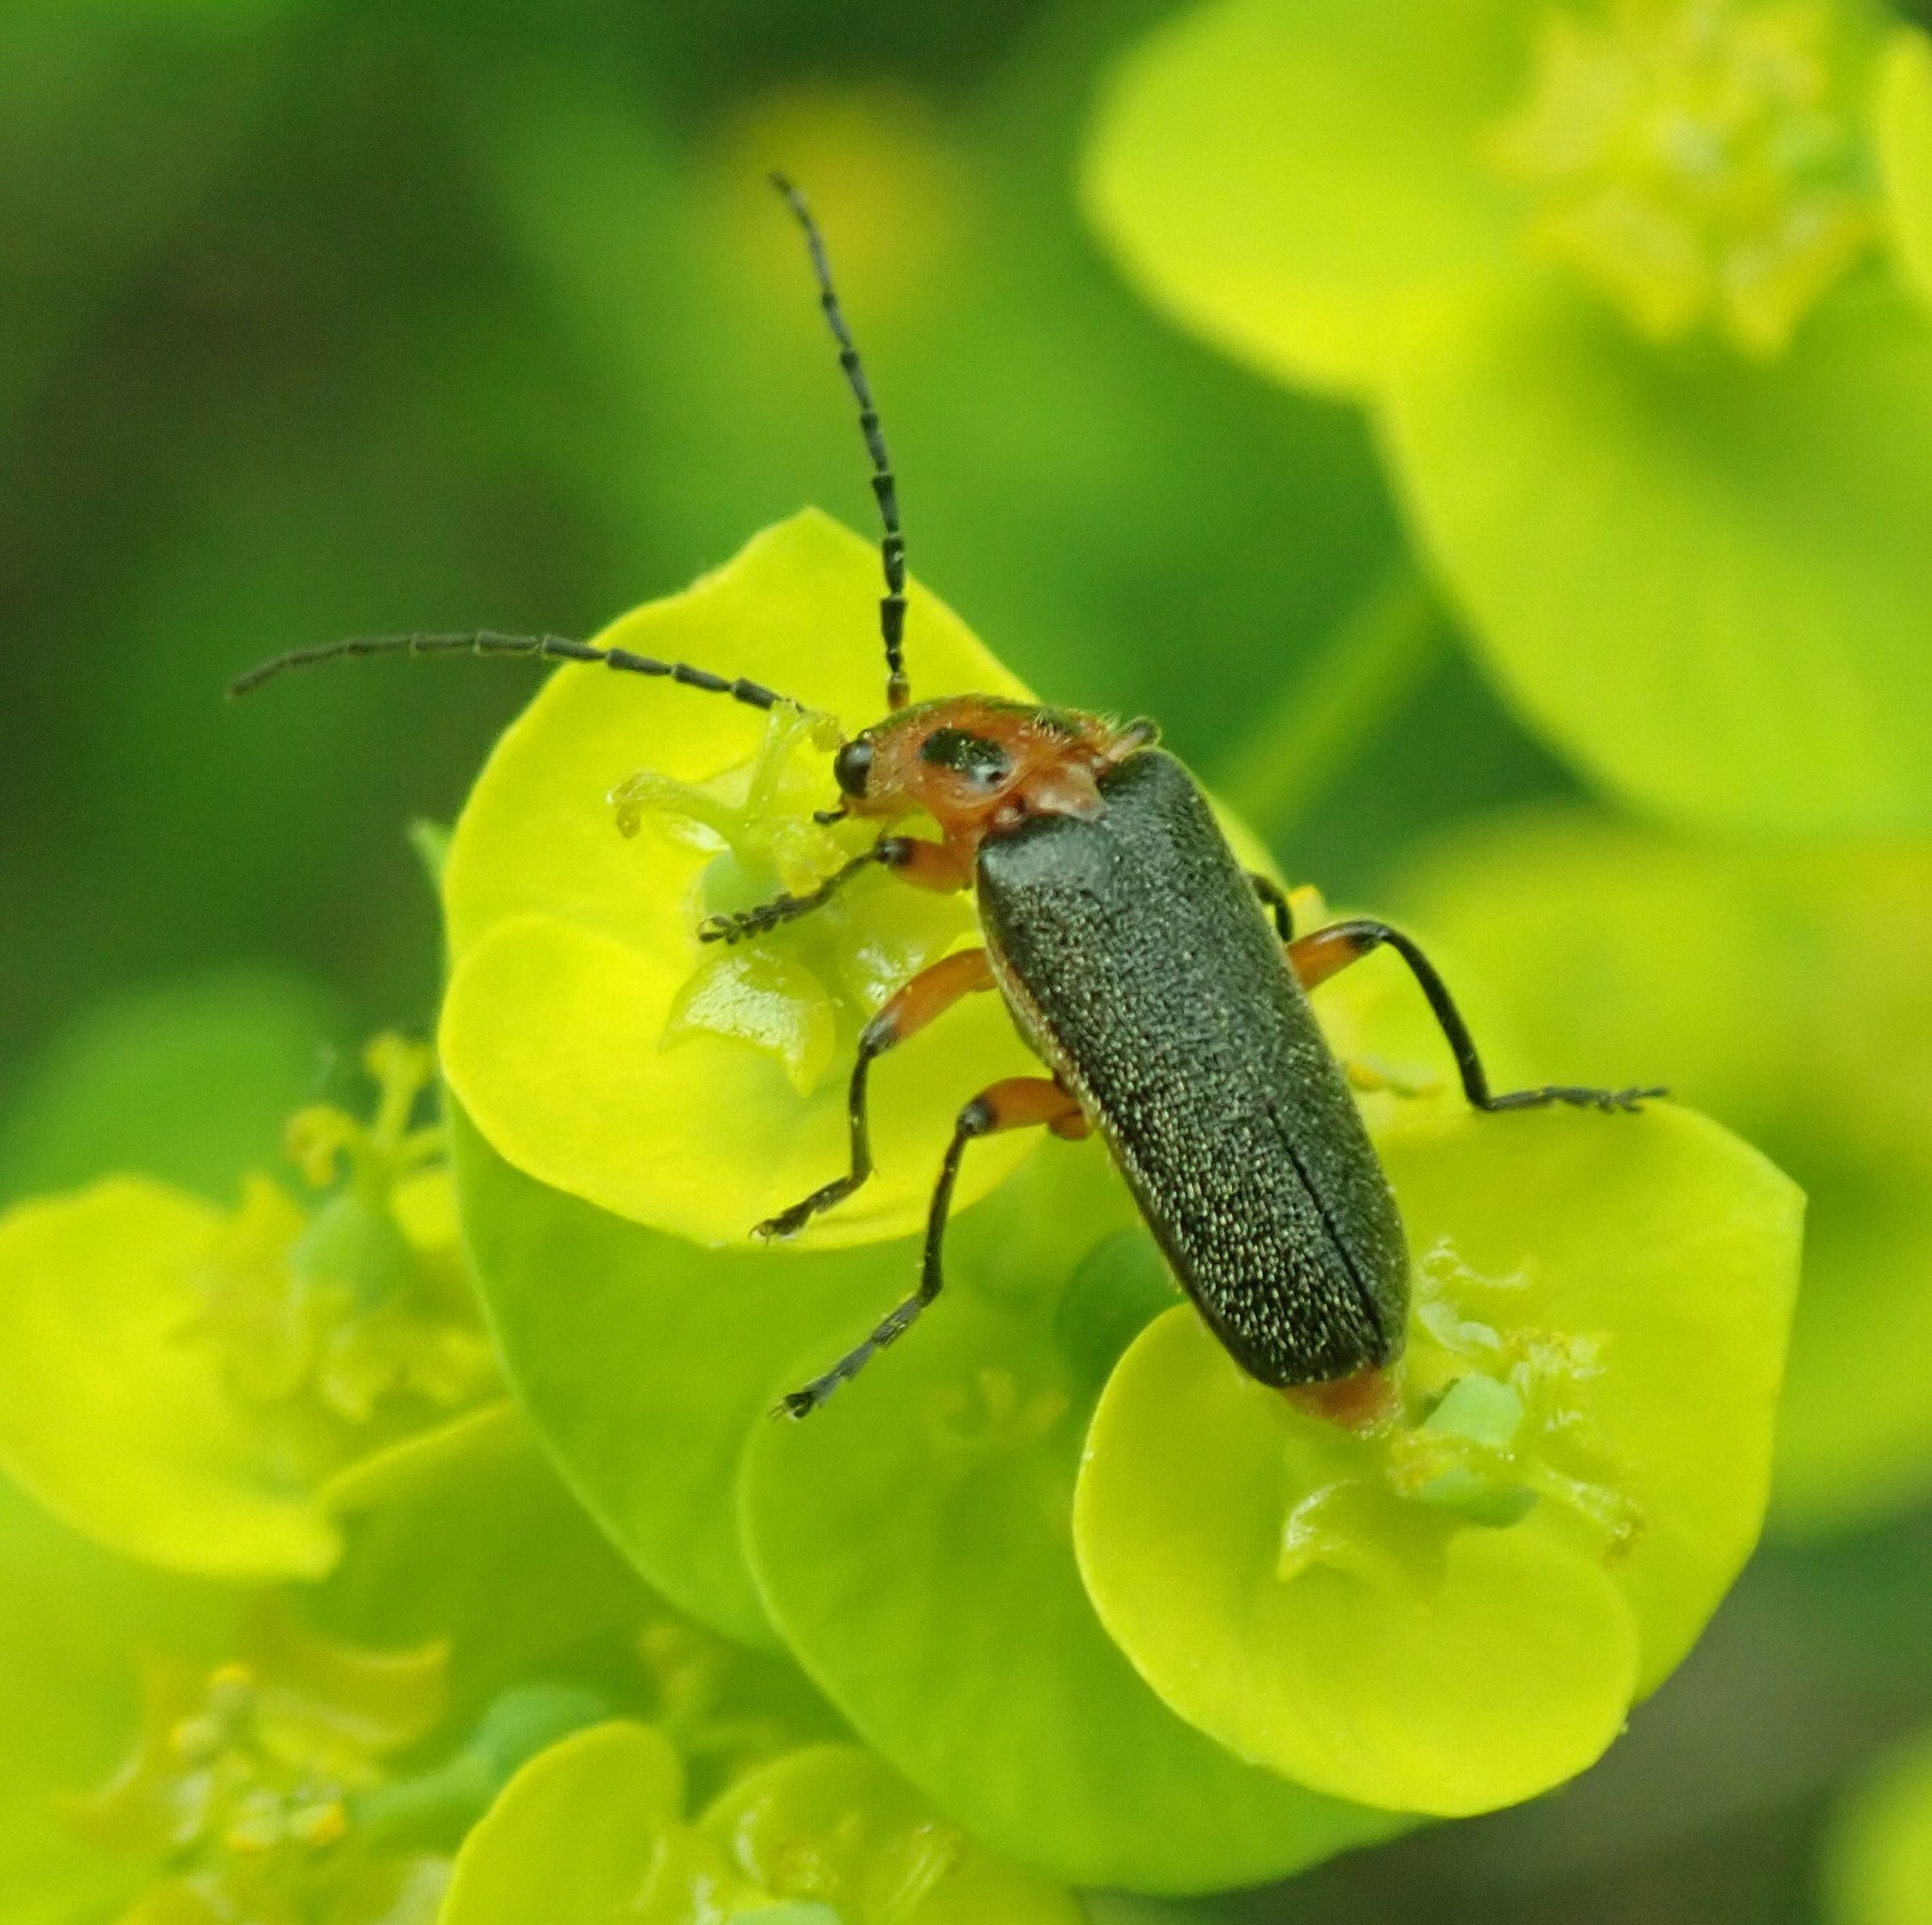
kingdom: Animalia
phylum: Arthropoda
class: Insecta
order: Coleoptera
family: Cantharidae
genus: Atalantycha
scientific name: Atalantycha bilineata
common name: Two-lined leatherwing
